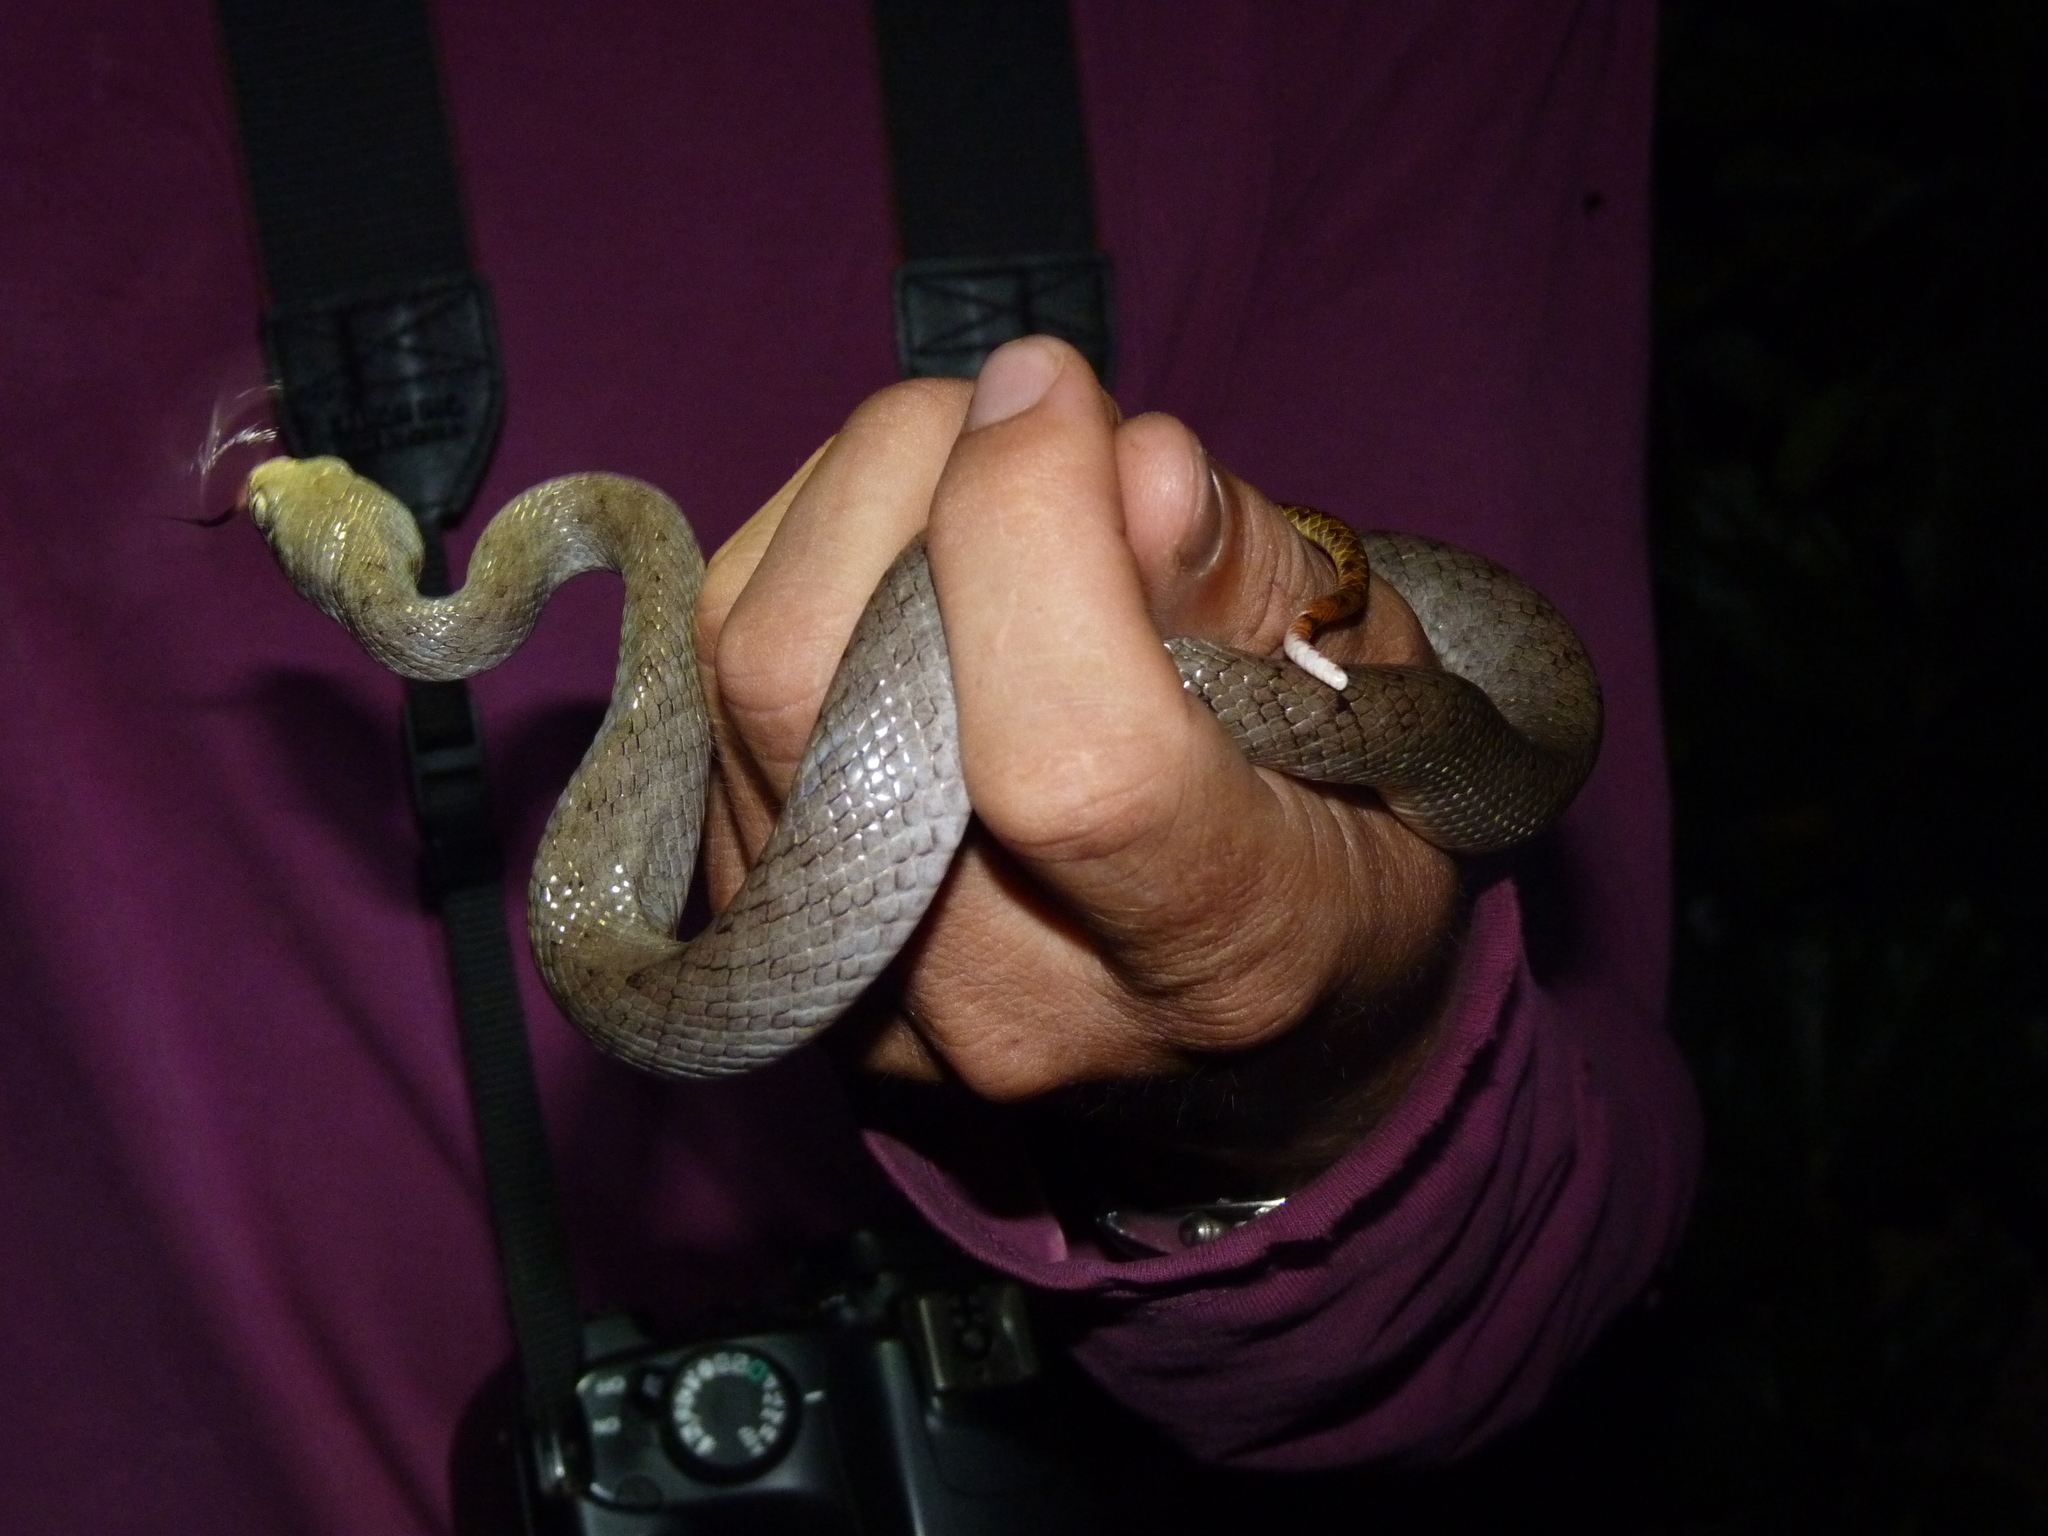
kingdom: Animalia
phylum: Chordata
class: Squamata
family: Pseudoxyrhophiidae
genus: Madagascarophis
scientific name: Madagascarophis colubrinus
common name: Madagascar night snake
